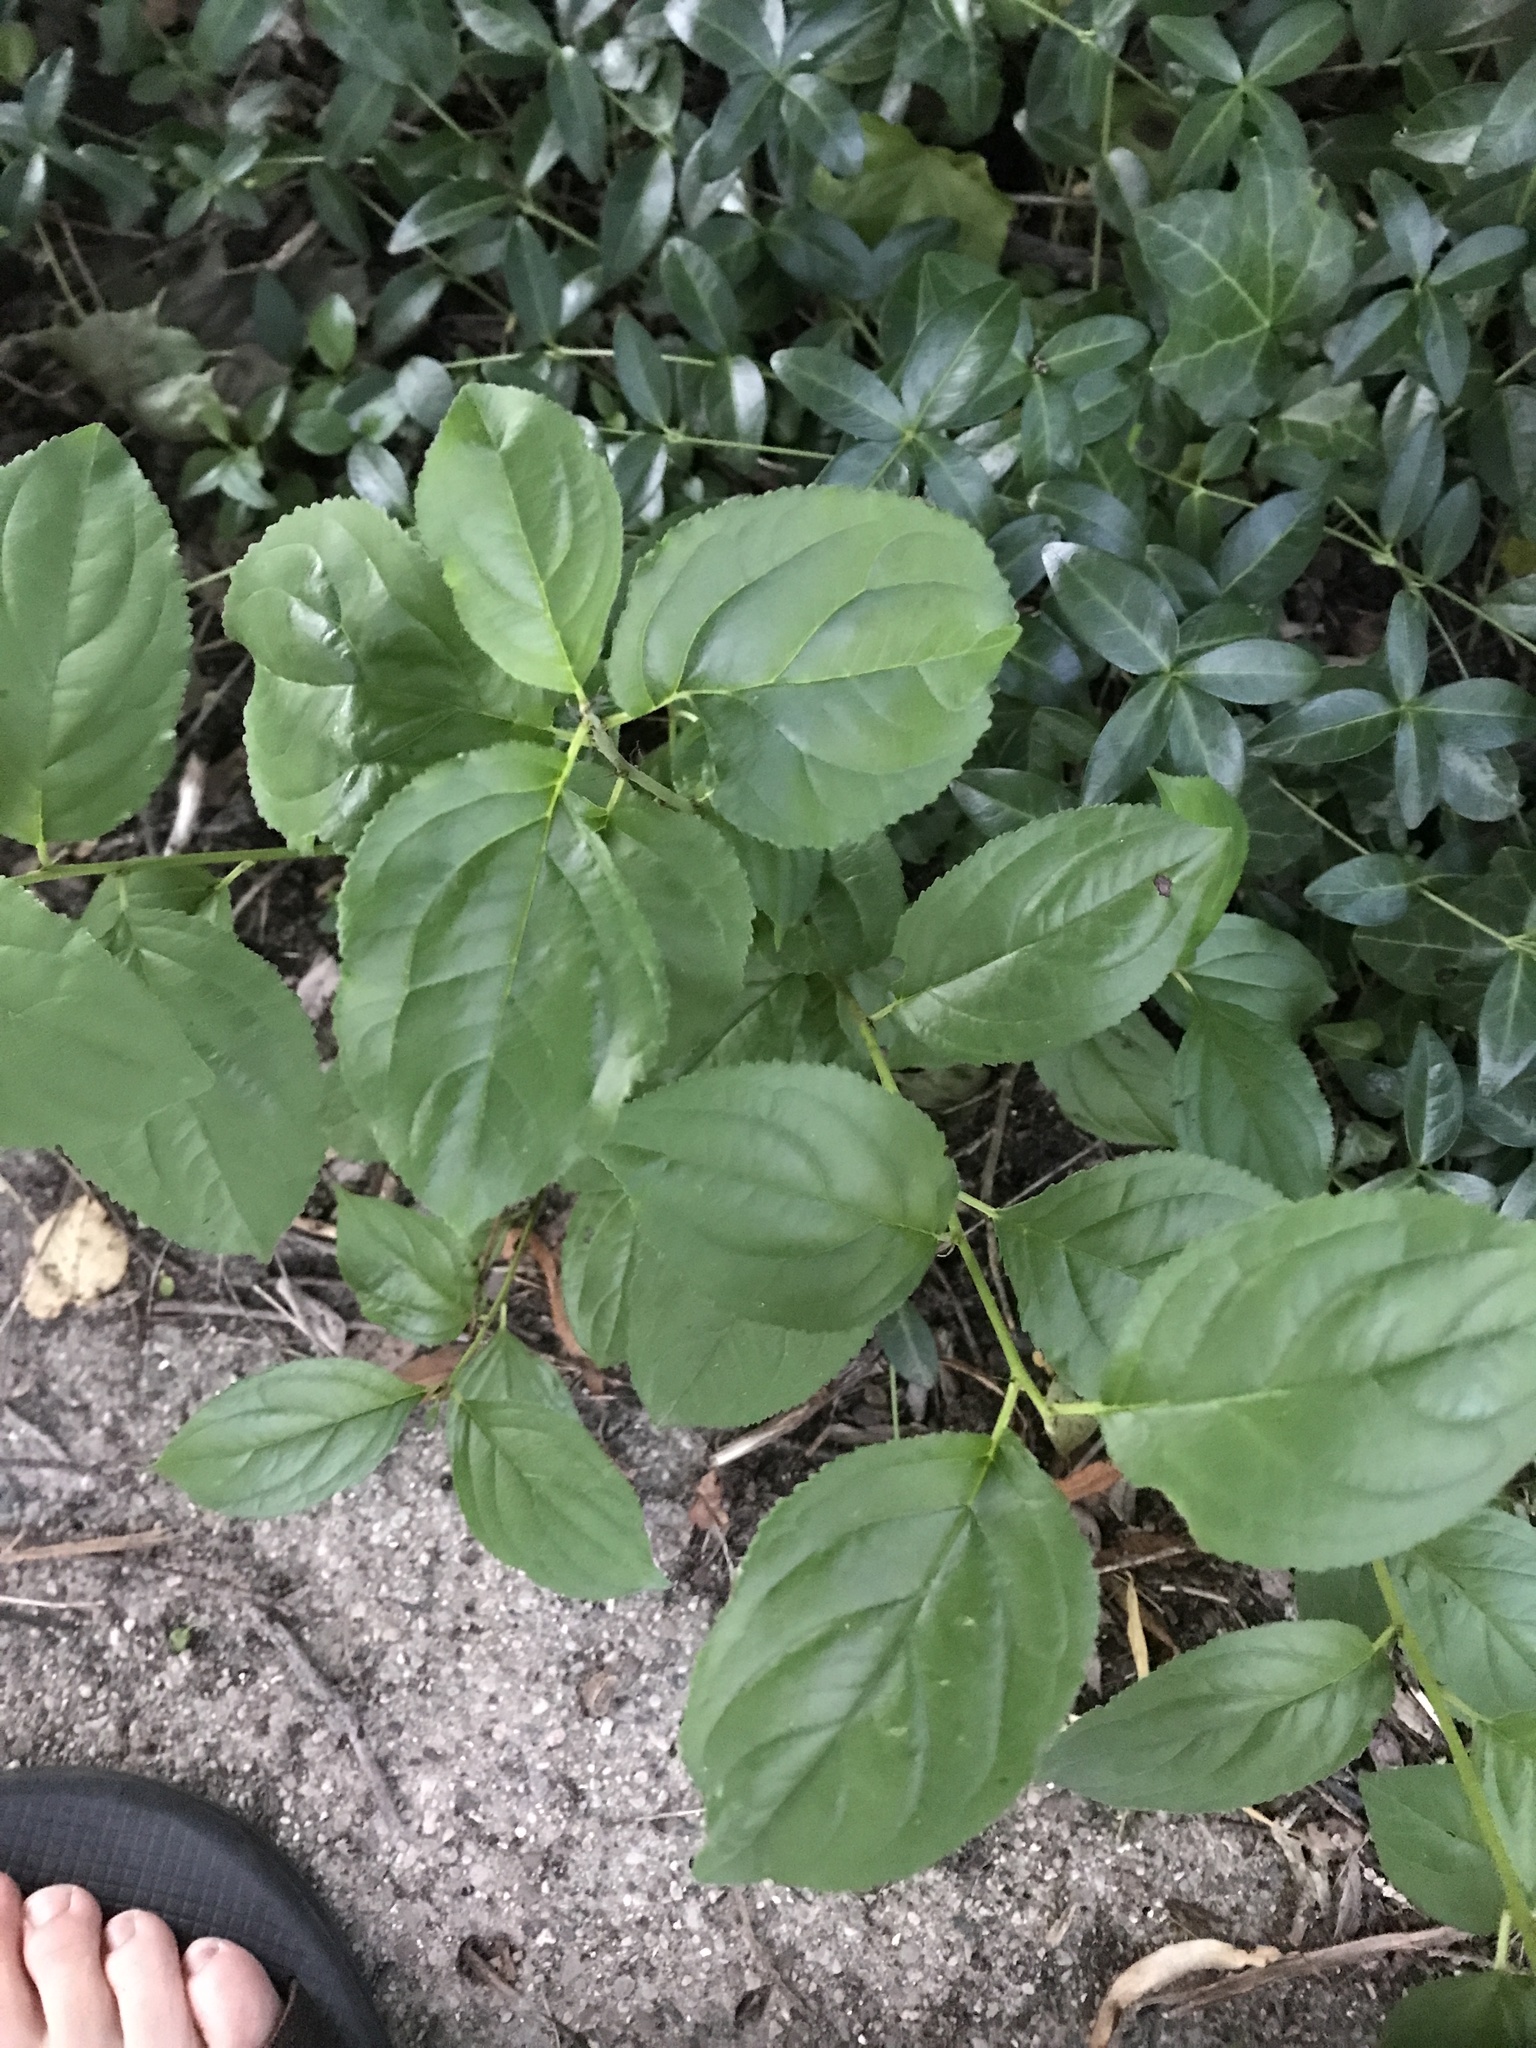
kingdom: Plantae
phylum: Tracheophyta
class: Magnoliopsida
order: Rosales
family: Rhamnaceae
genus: Rhamnus
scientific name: Rhamnus cathartica
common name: Common buckthorn
